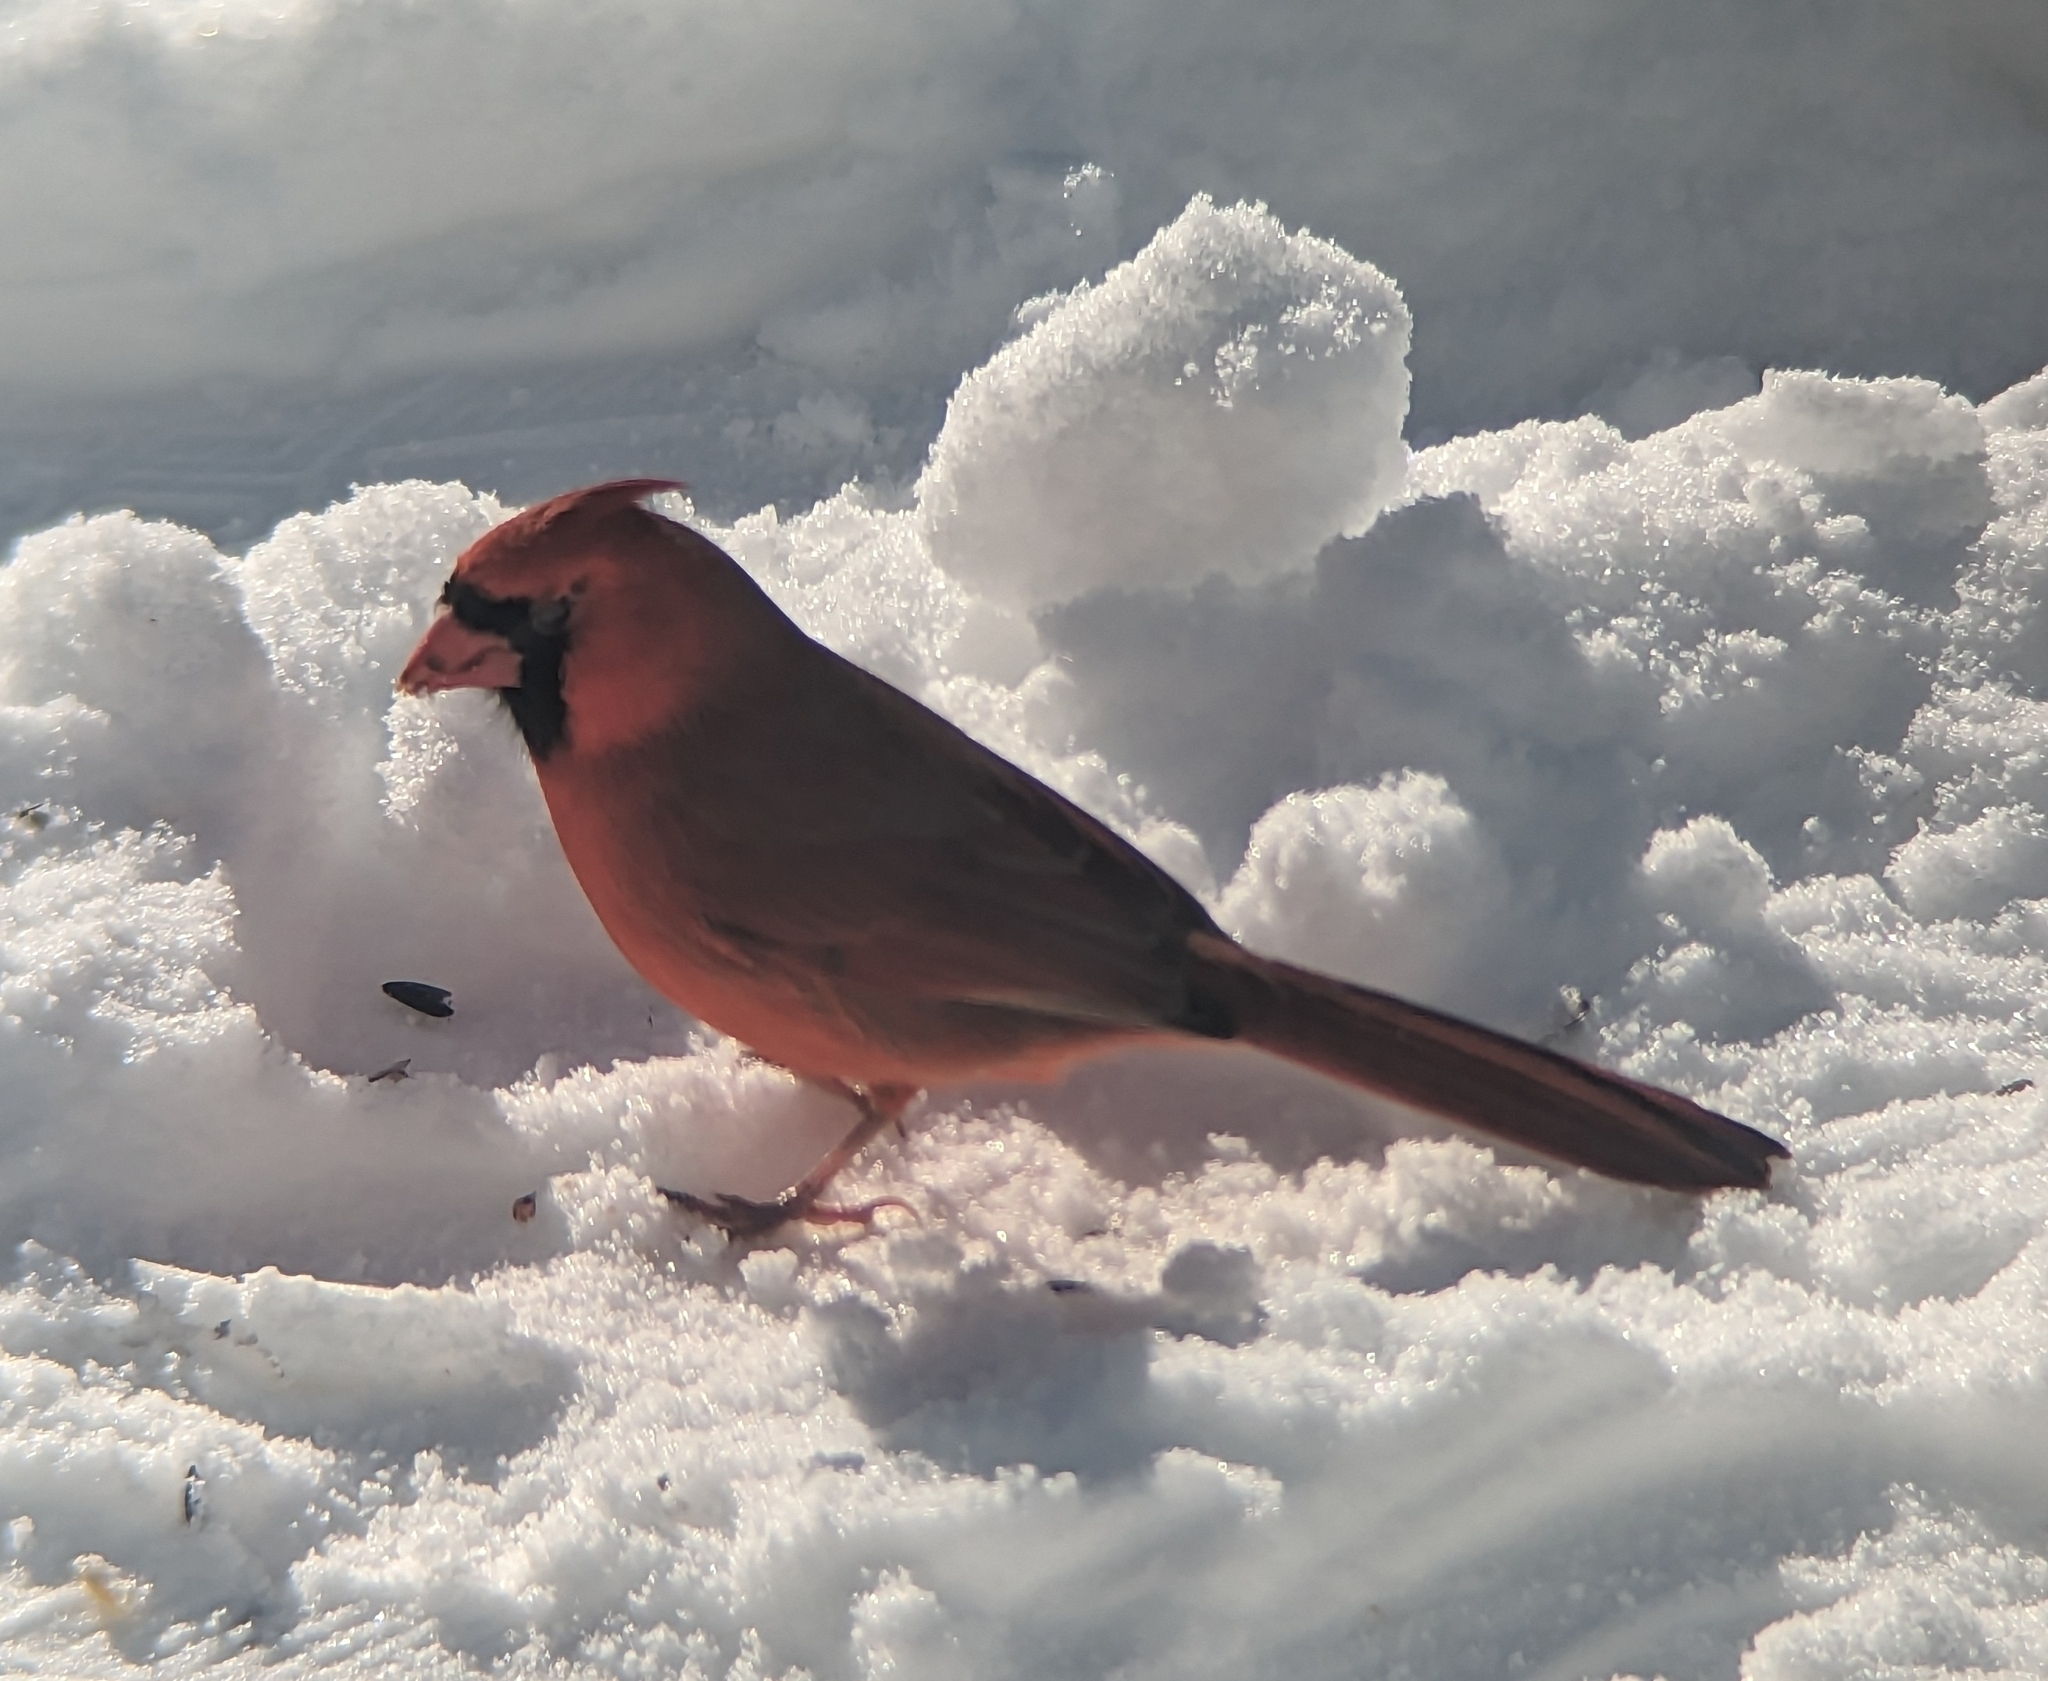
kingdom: Animalia
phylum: Chordata
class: Aves
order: Passeriformes
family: Cardinalidae
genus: Cardinalis
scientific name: Cardinalis cardinalis
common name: Northern cardinal
